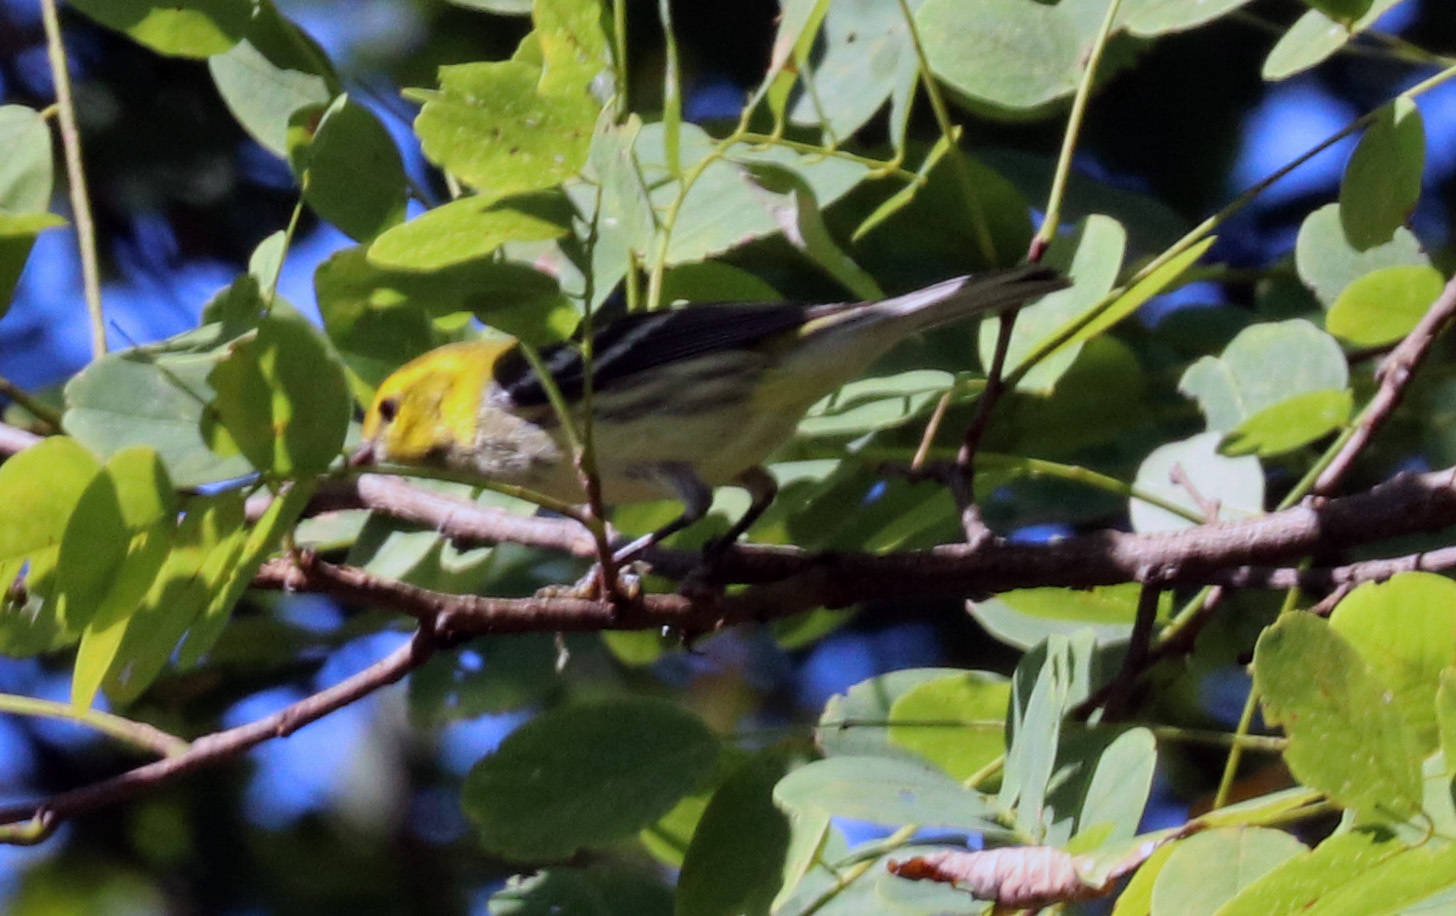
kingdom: Animalia
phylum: Chordata
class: Aves
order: Passeriformes
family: Parulidae
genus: Setophaga
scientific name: Setophaga virens
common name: Black-throated green warbler
